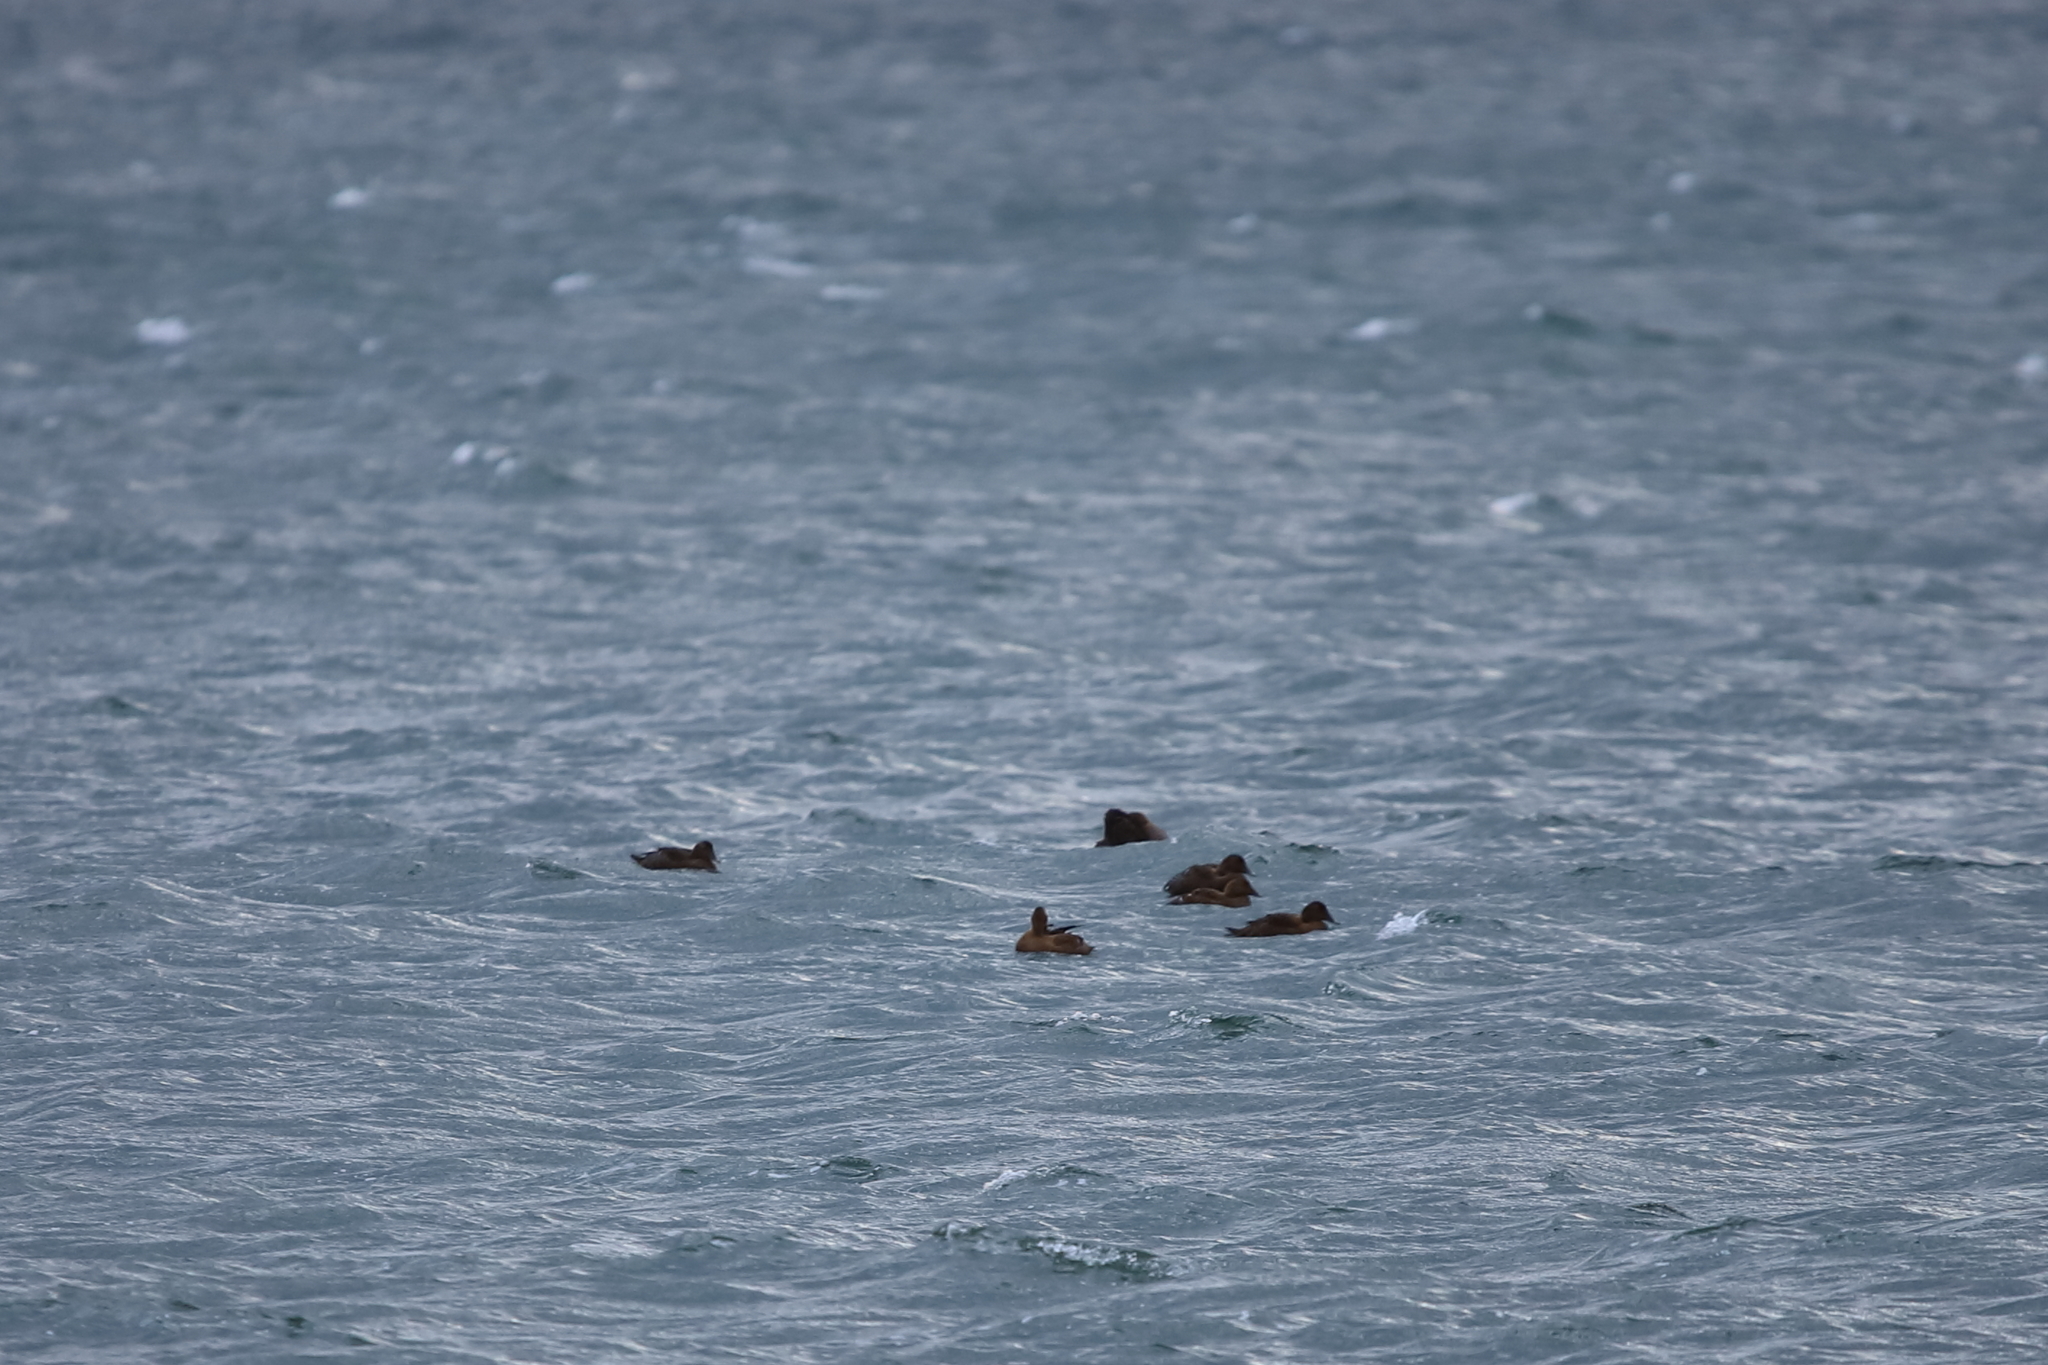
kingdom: Animalia
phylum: Chordata
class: Aves
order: Anseriformes
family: Anatidae
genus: Somateria
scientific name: Somateria mollissima
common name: Common eider
